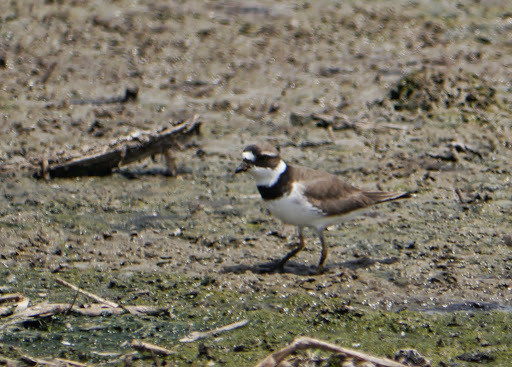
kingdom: Animalia
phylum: Chordata
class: Aves
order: Charadriiformes
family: Charadriidae
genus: Charadrius
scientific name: Charadrius semipalmatus
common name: Semipalmated plover
